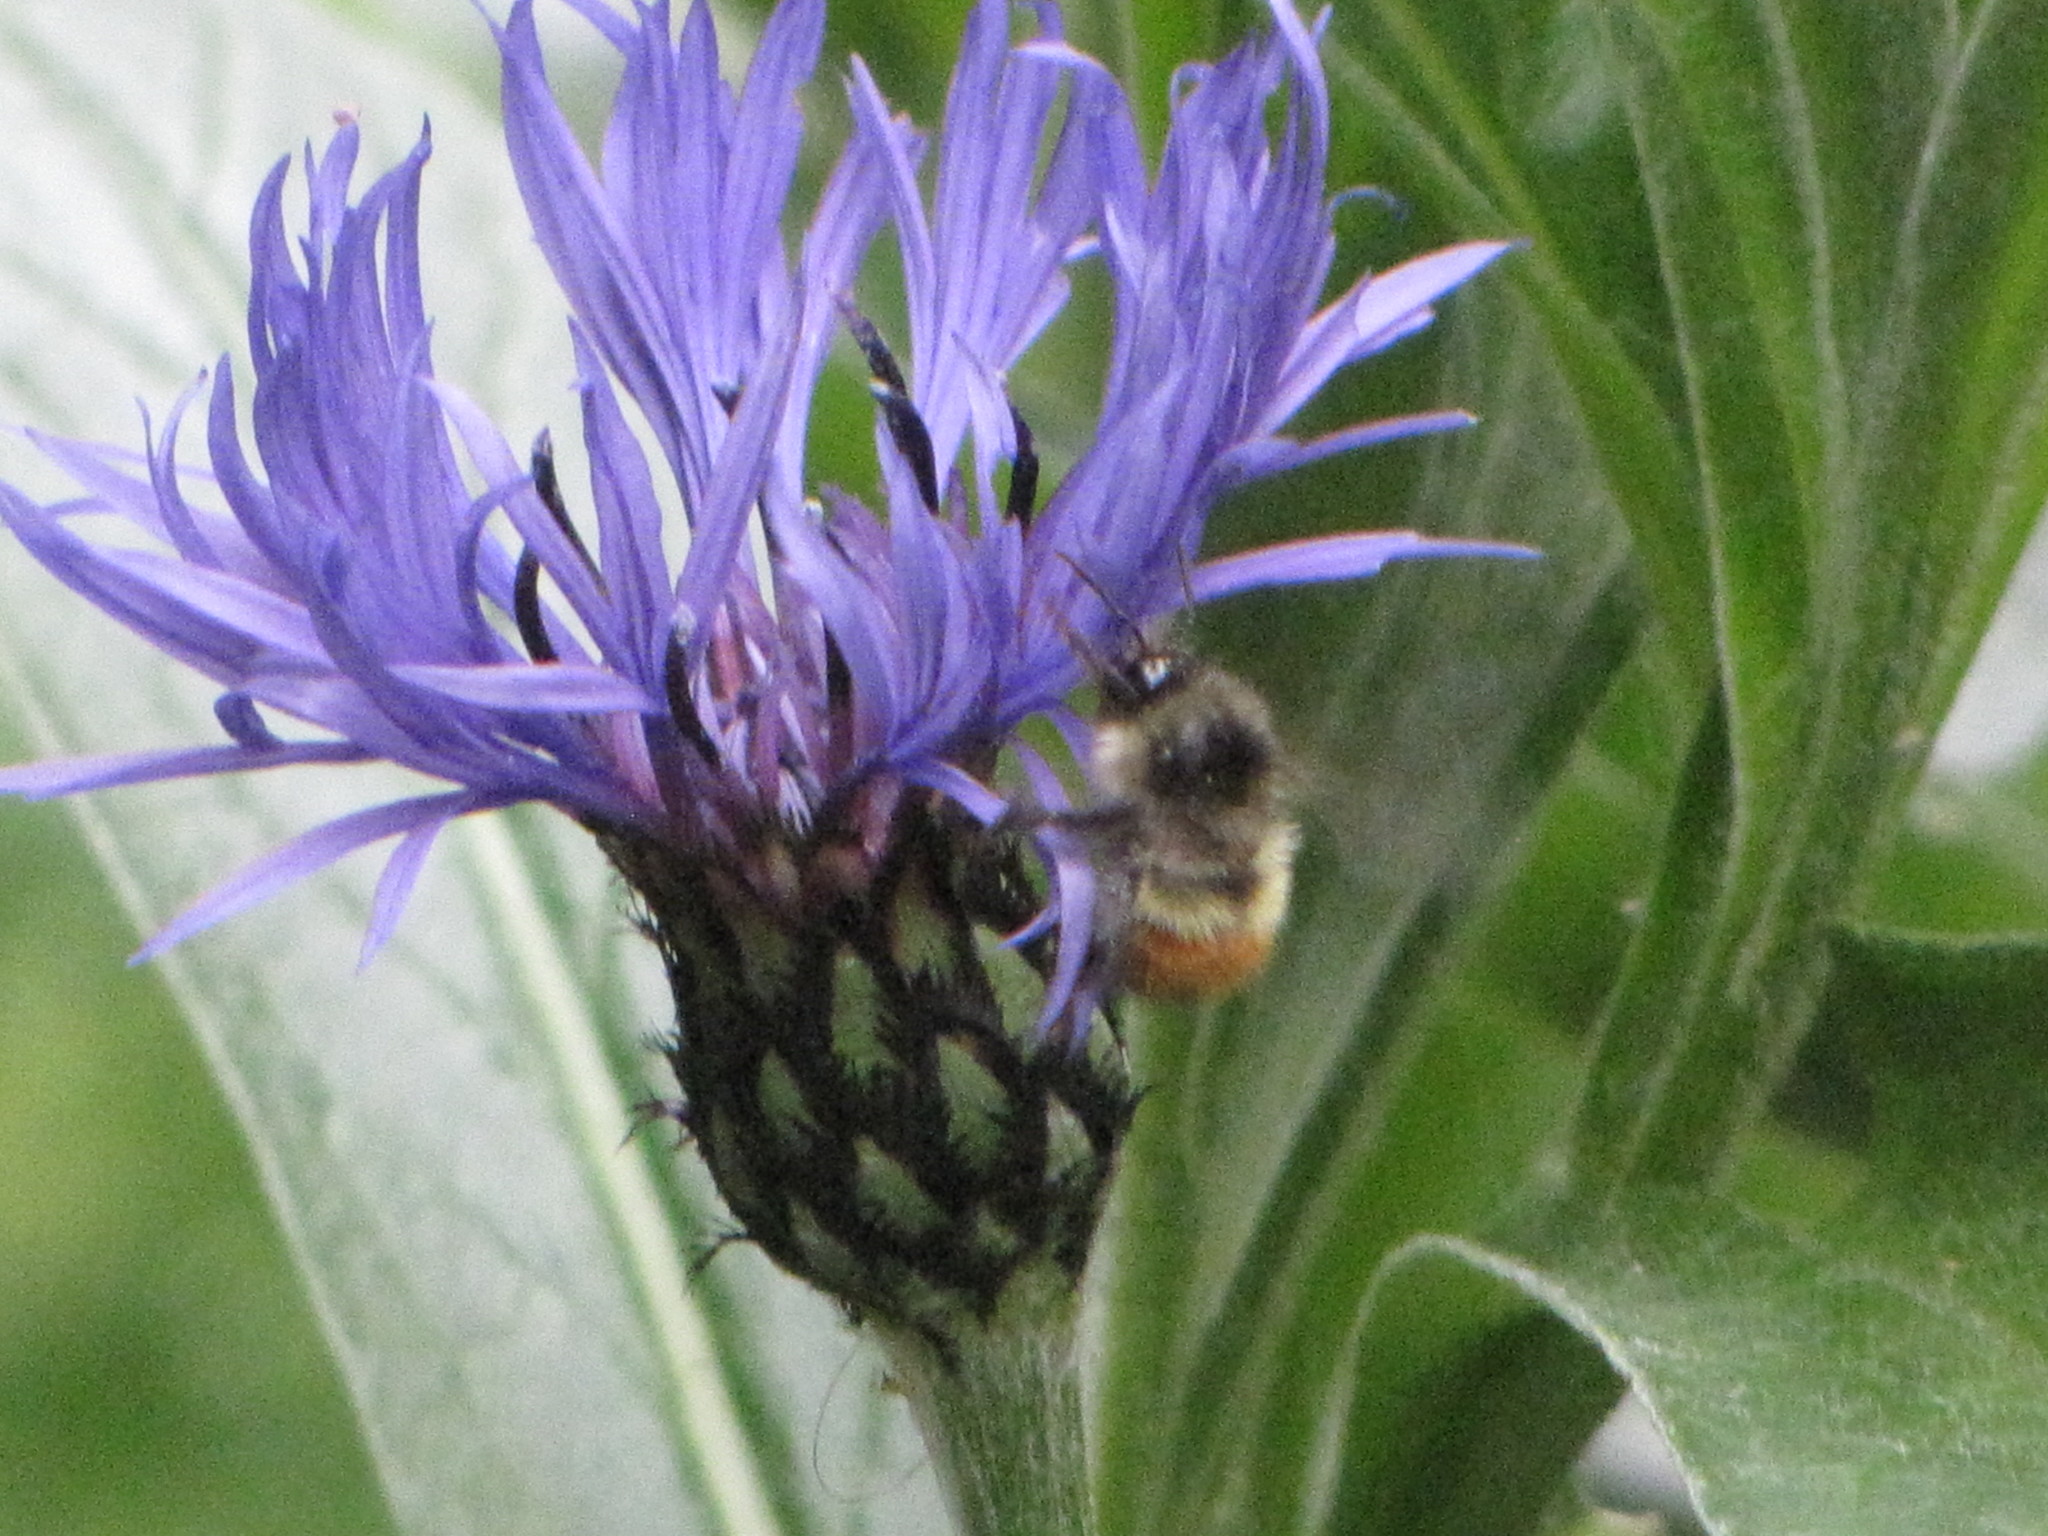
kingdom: Animalia
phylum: Arthropoda
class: Insecta
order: Hymenoptera
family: Apidae
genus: Bombus
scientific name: Bombus flavifrons
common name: Yellow head bumble bee
